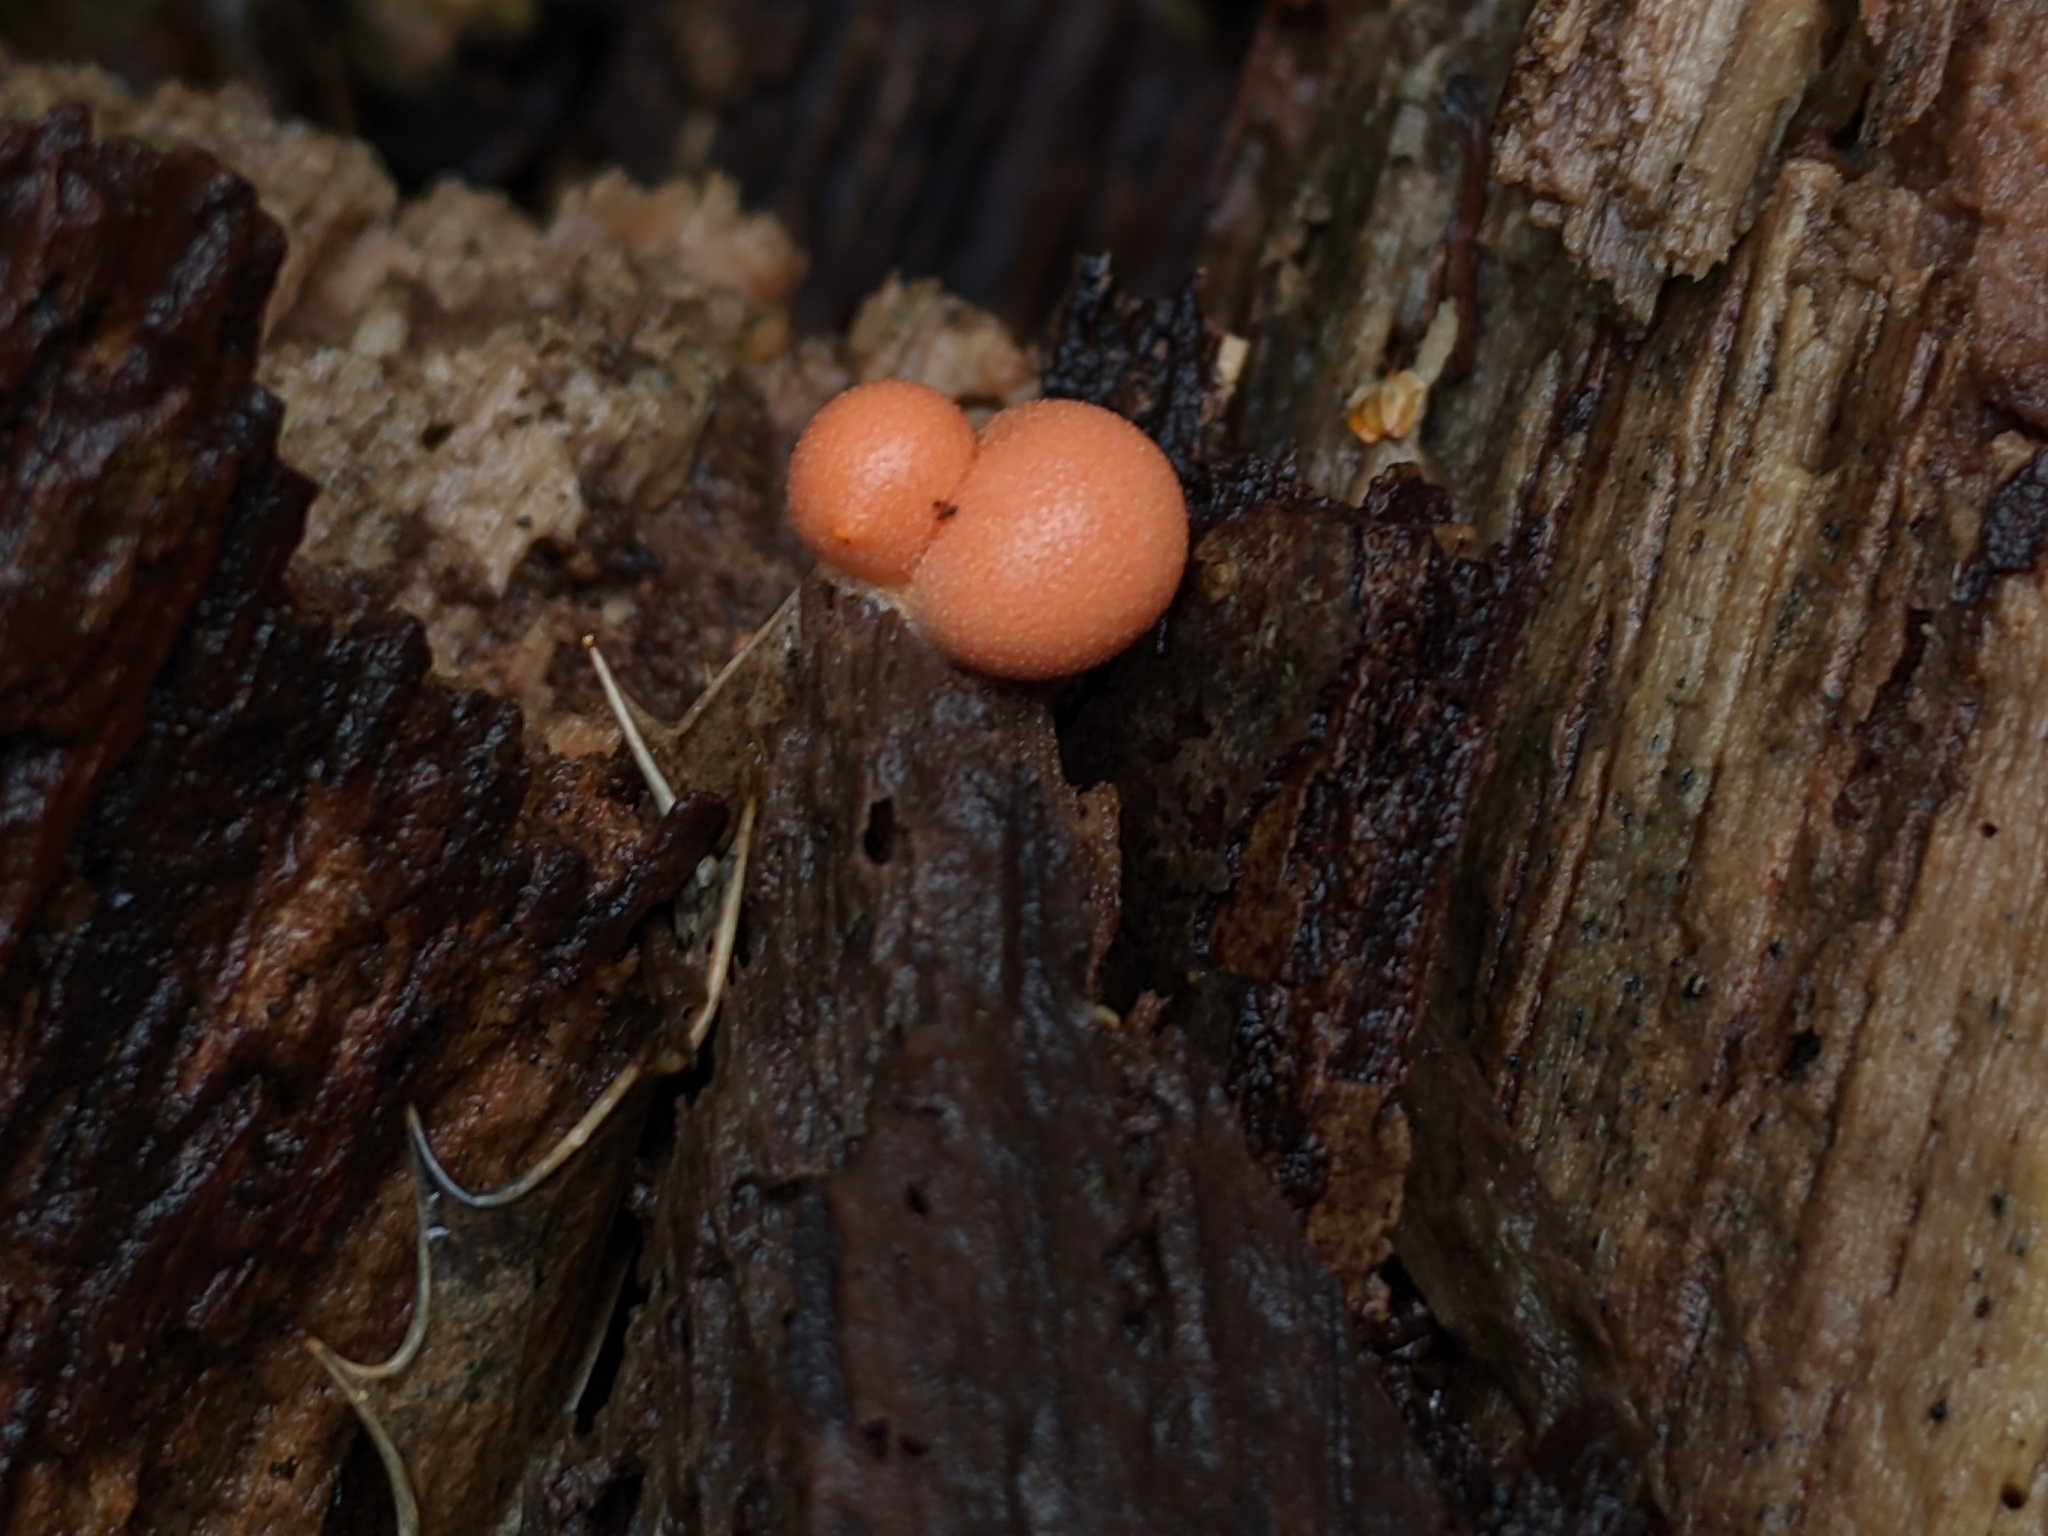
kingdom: Protozoa
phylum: Mycetozoa
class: Myxomycetes
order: Cribrariales
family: Tubiferaceae
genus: Lycogala
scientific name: Lycogala epidendrum
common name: Wolf's milk
